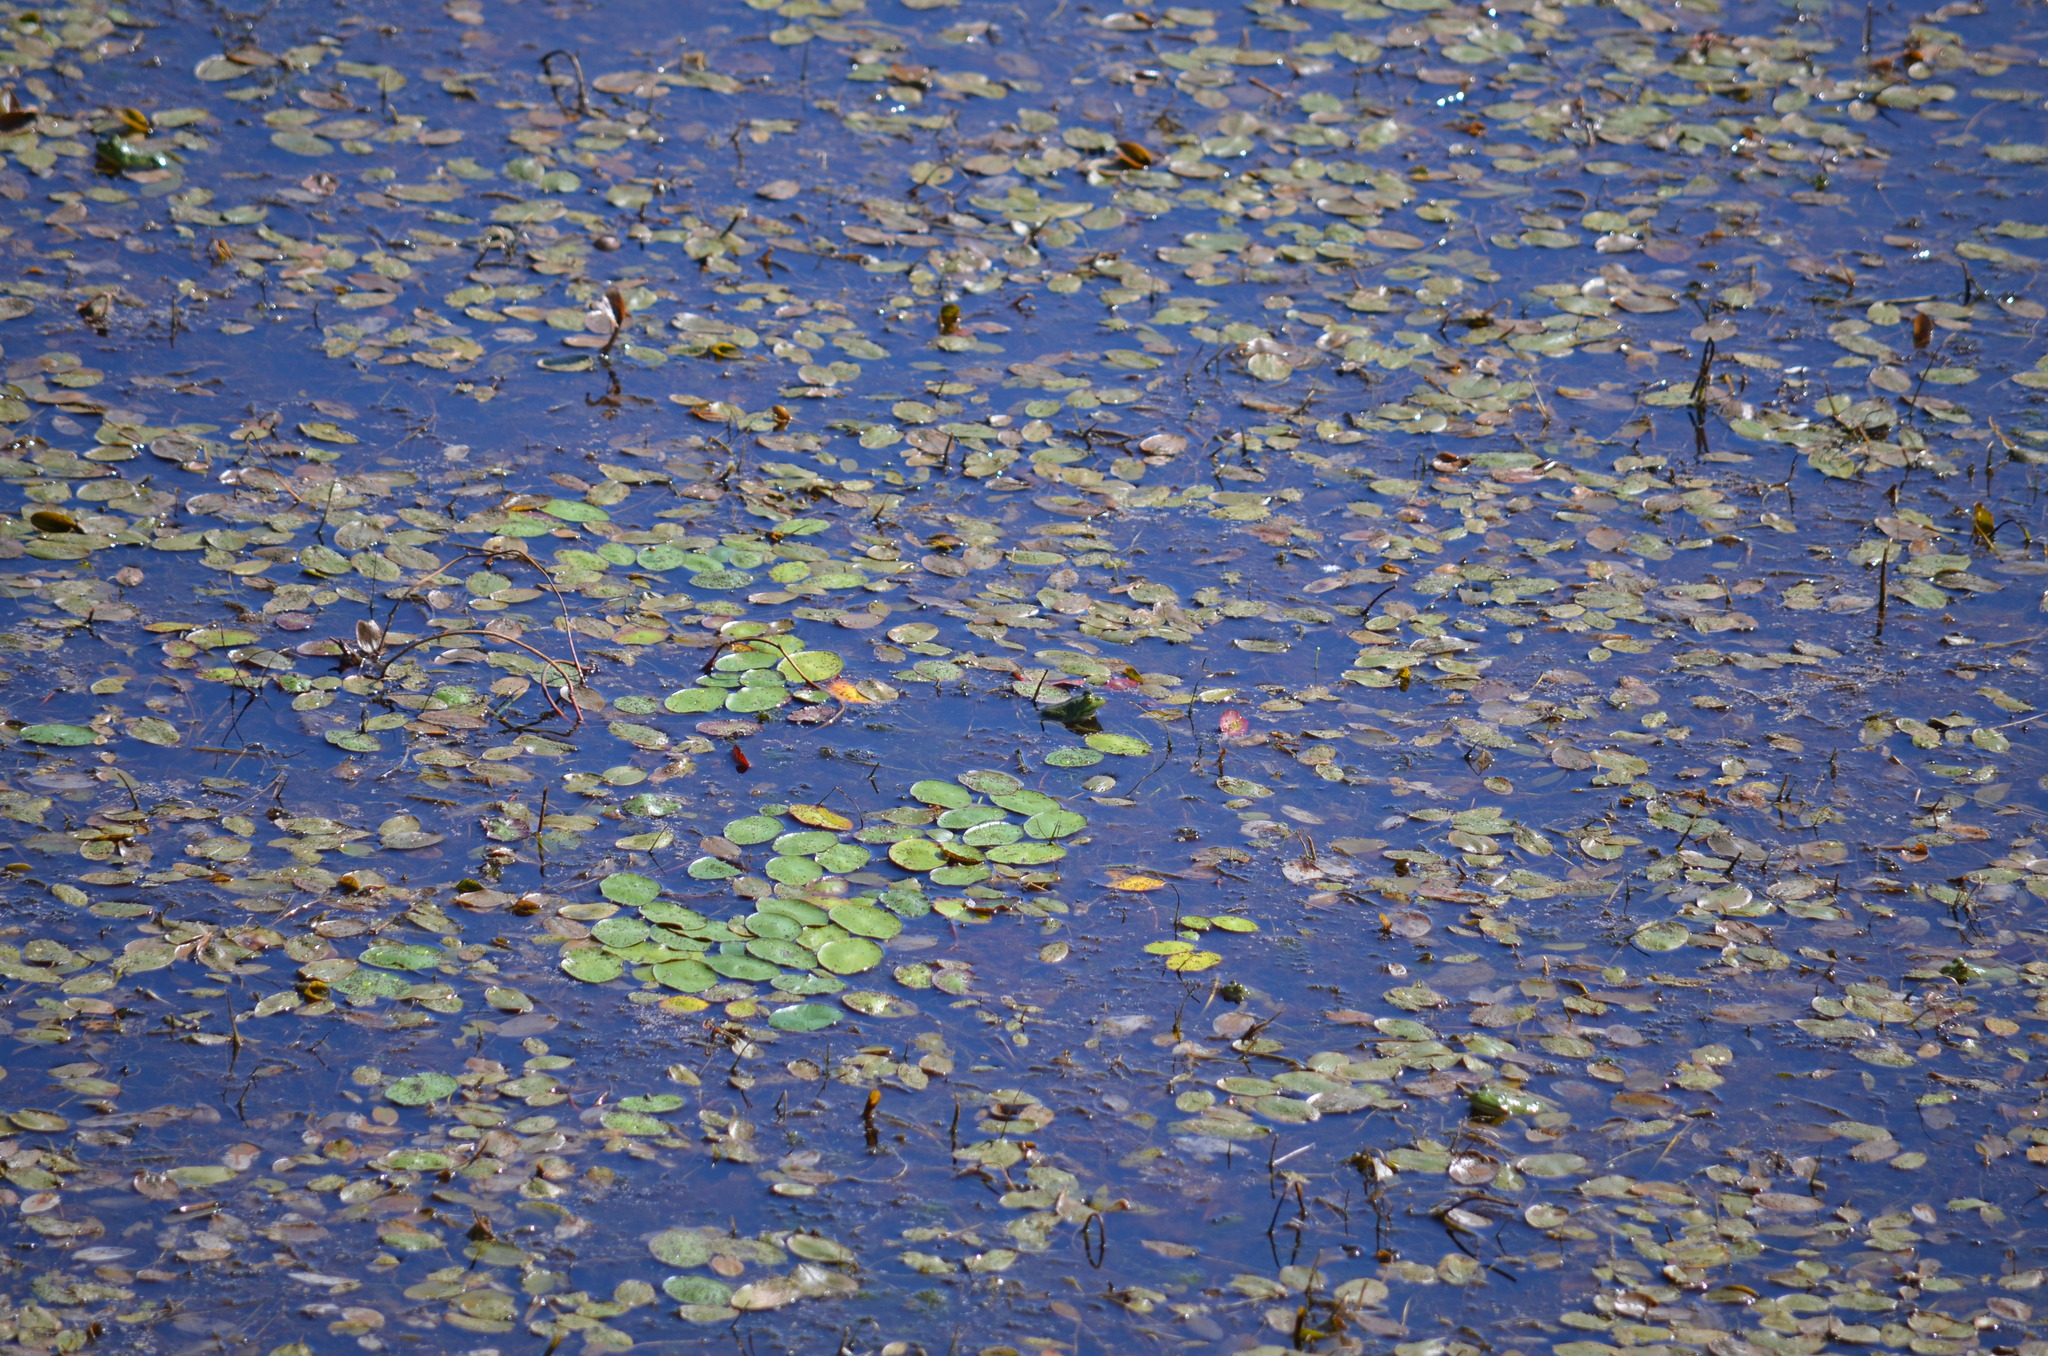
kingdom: Animalia
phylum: Chordata
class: Amphibia
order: Anura
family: Ranidae
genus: Lithobates
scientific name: Lithobates catesbeianus
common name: American bullfrog
